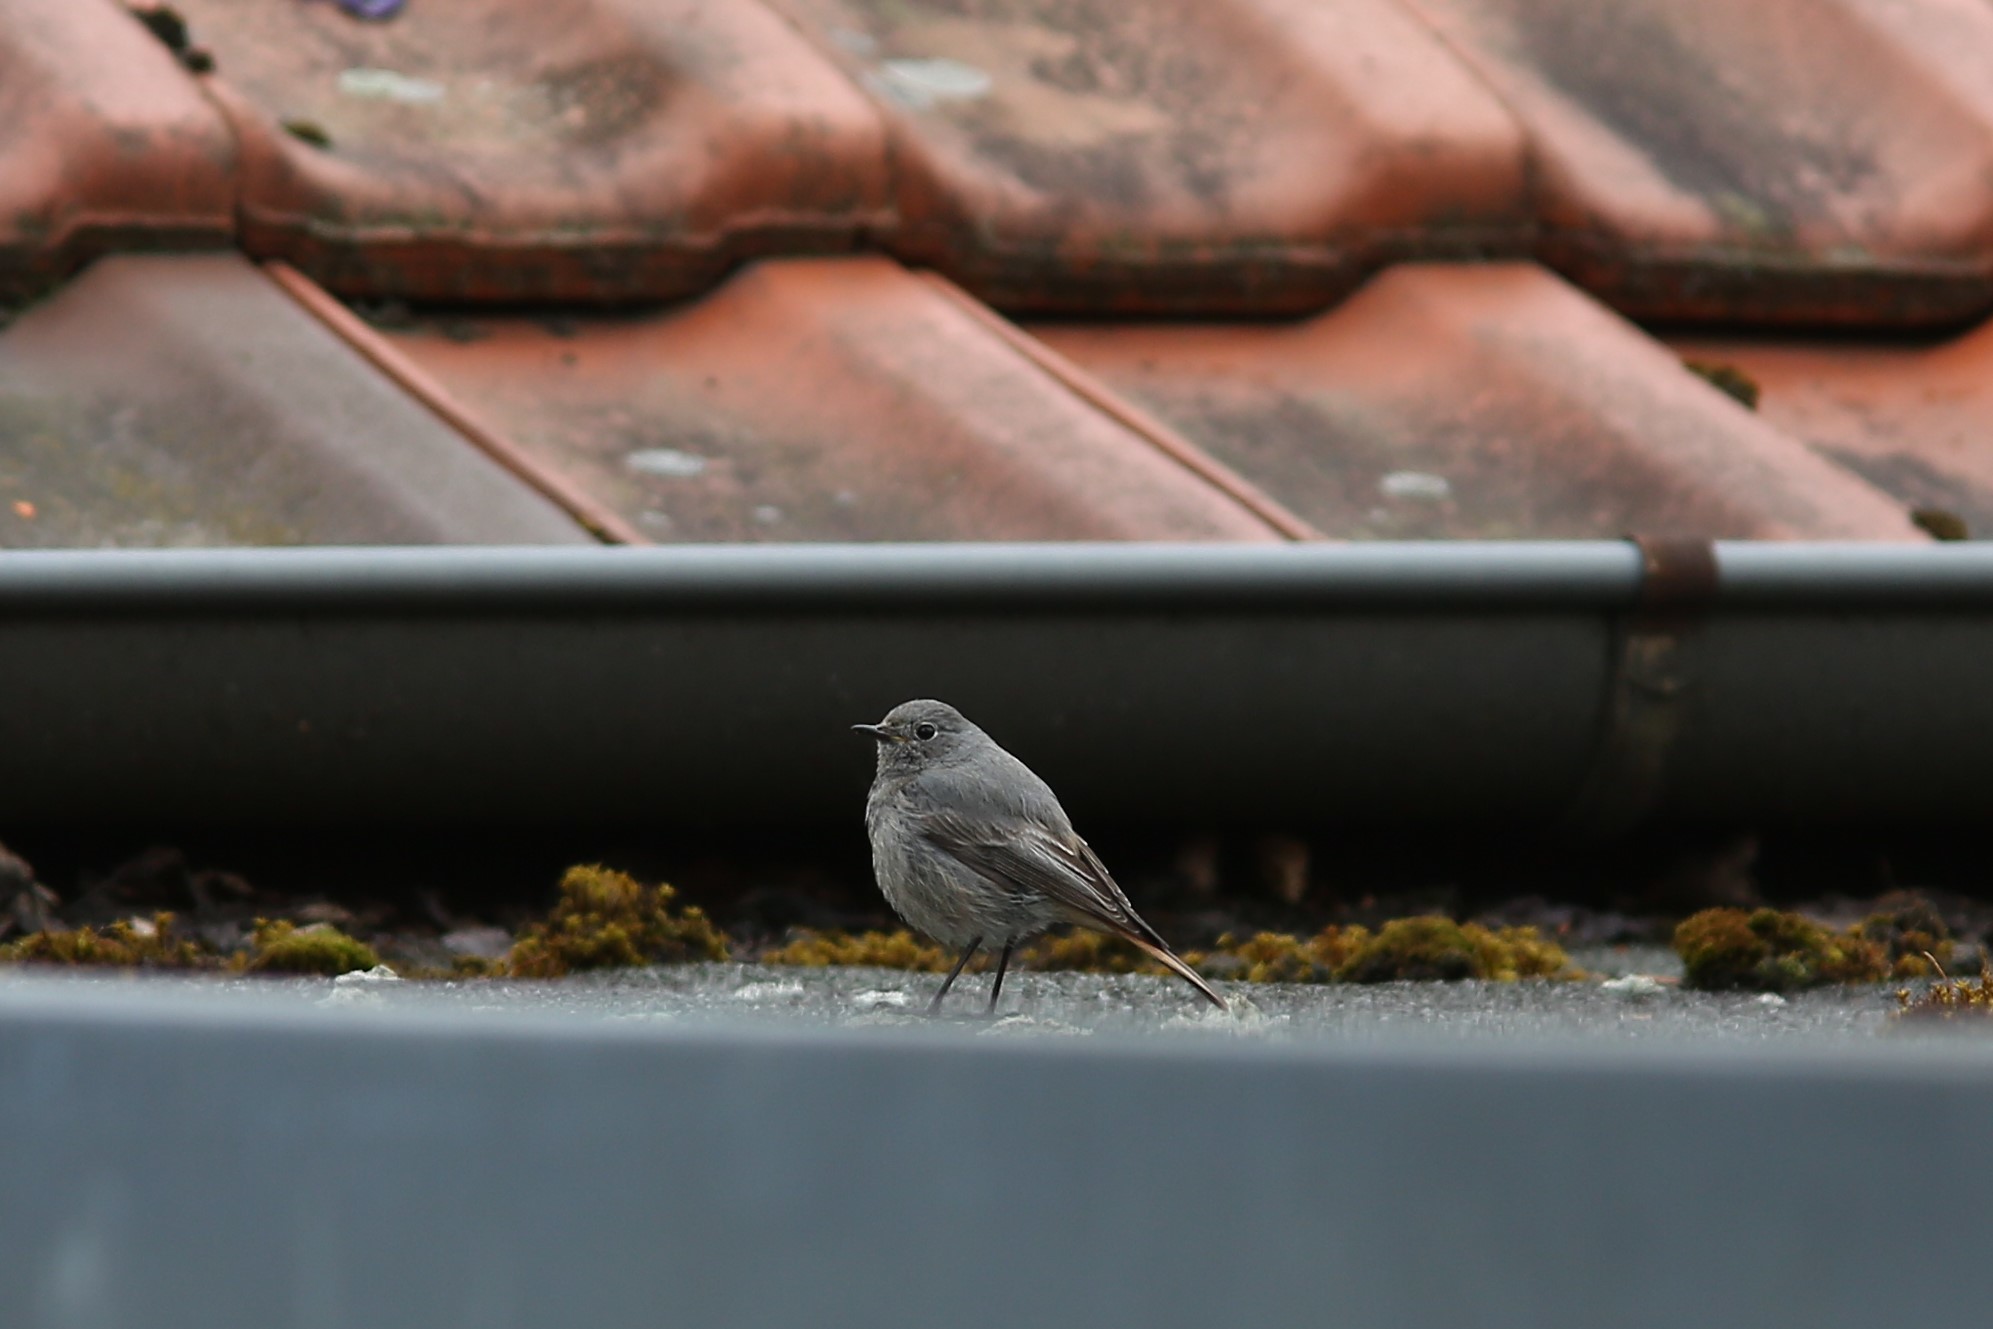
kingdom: Animalia
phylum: Chordata
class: Aves
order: Passeriformes
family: Muscicapidae
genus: Phoenicurus
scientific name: Phoenicurus ochruros
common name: Black redstart
